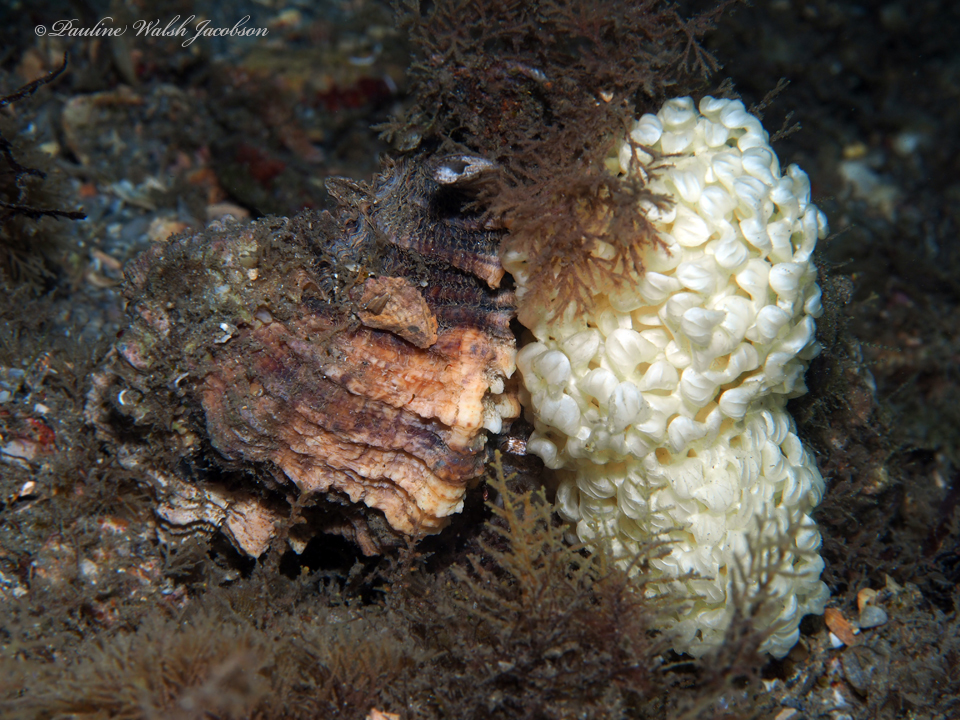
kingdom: Animalia
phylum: Mollusca
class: Gastropoda
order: Neogastropoda
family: Muricidae
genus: Phyllonotus
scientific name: Phyllonotus pomum
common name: Apple murex
